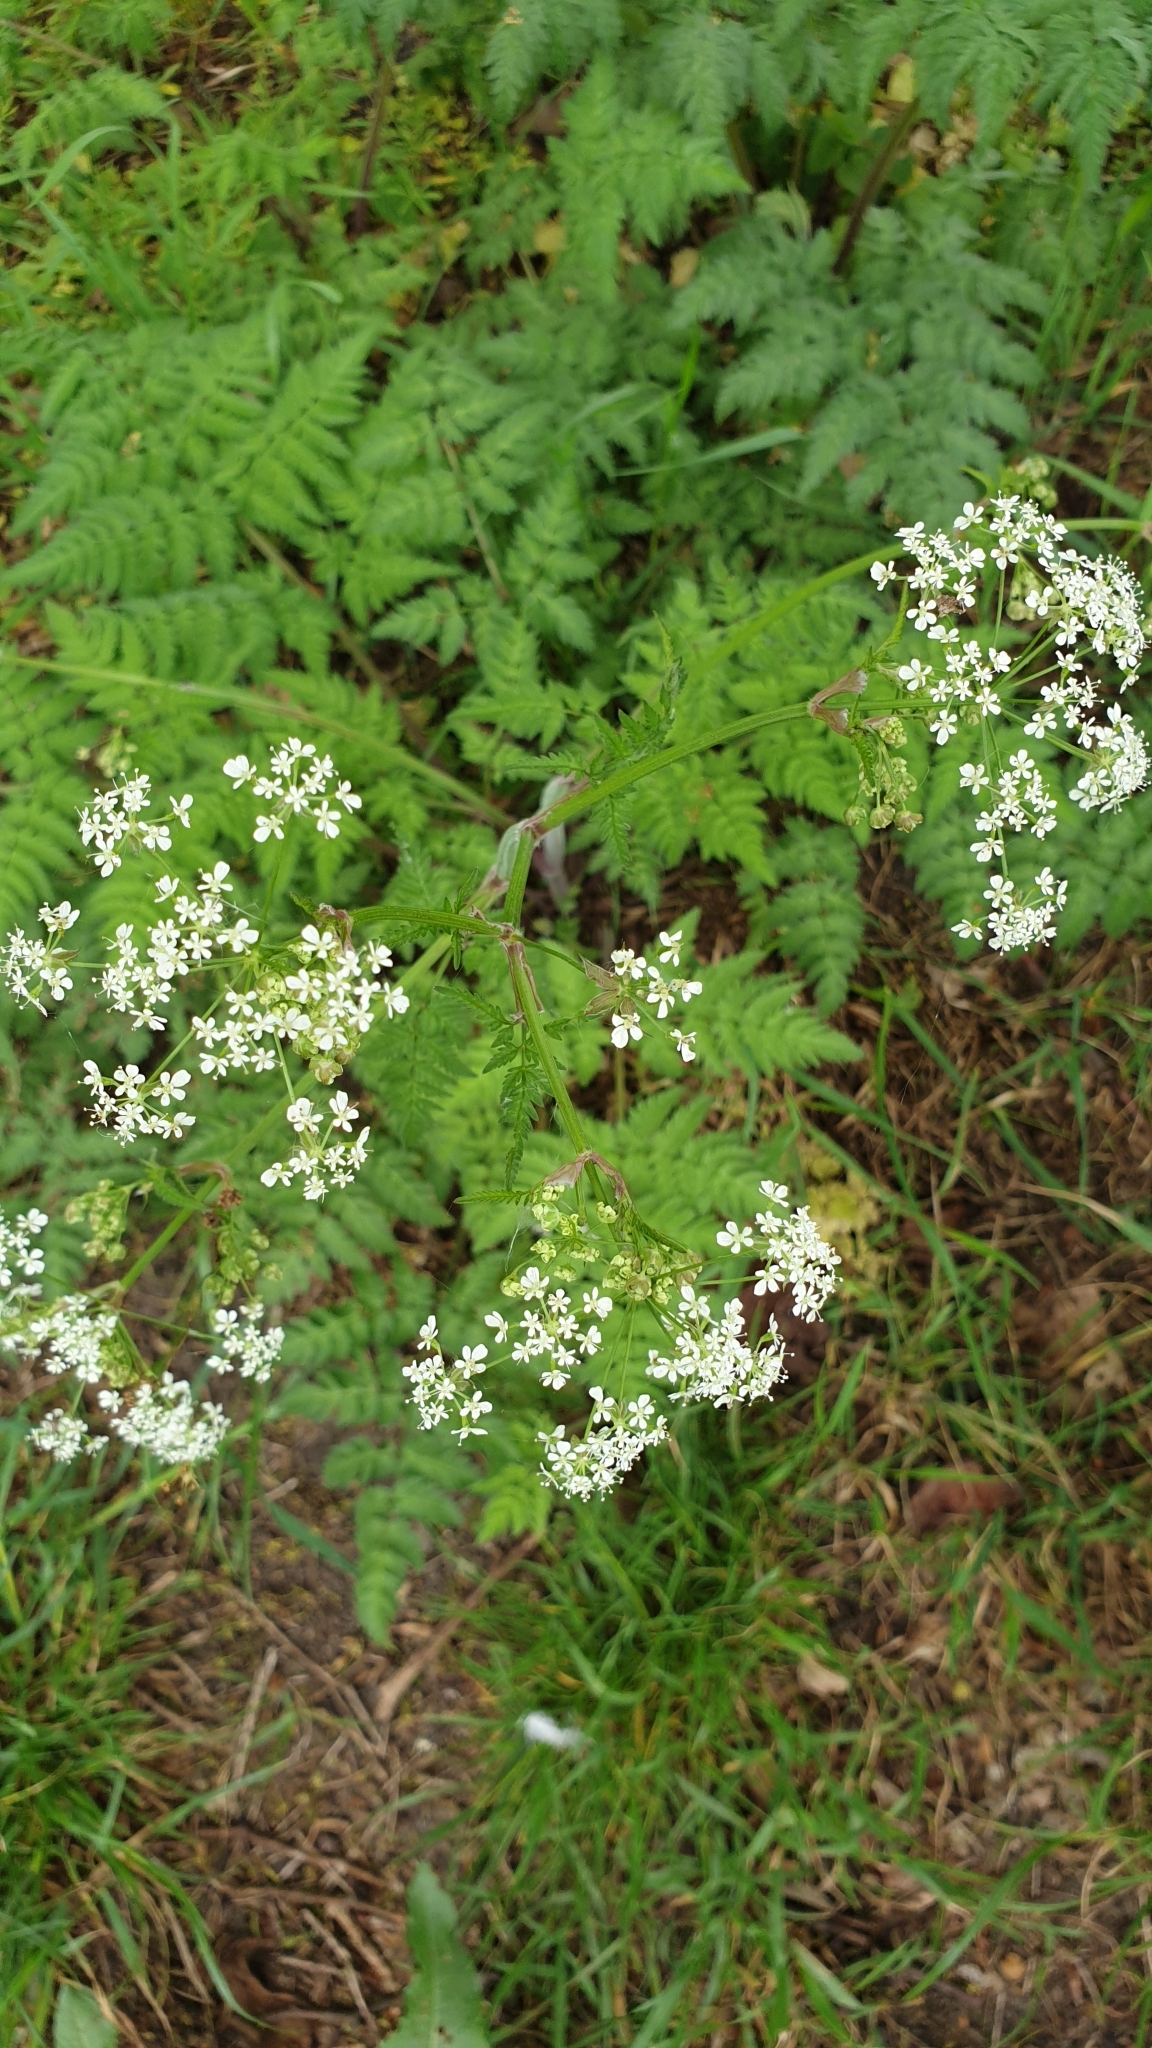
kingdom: Plantae
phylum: Tracheophyta
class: Magnoliopsida
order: Apiales
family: Apiaceae
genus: Anthriscus
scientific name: Anthriscus sylvestris
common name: Cow parsley
